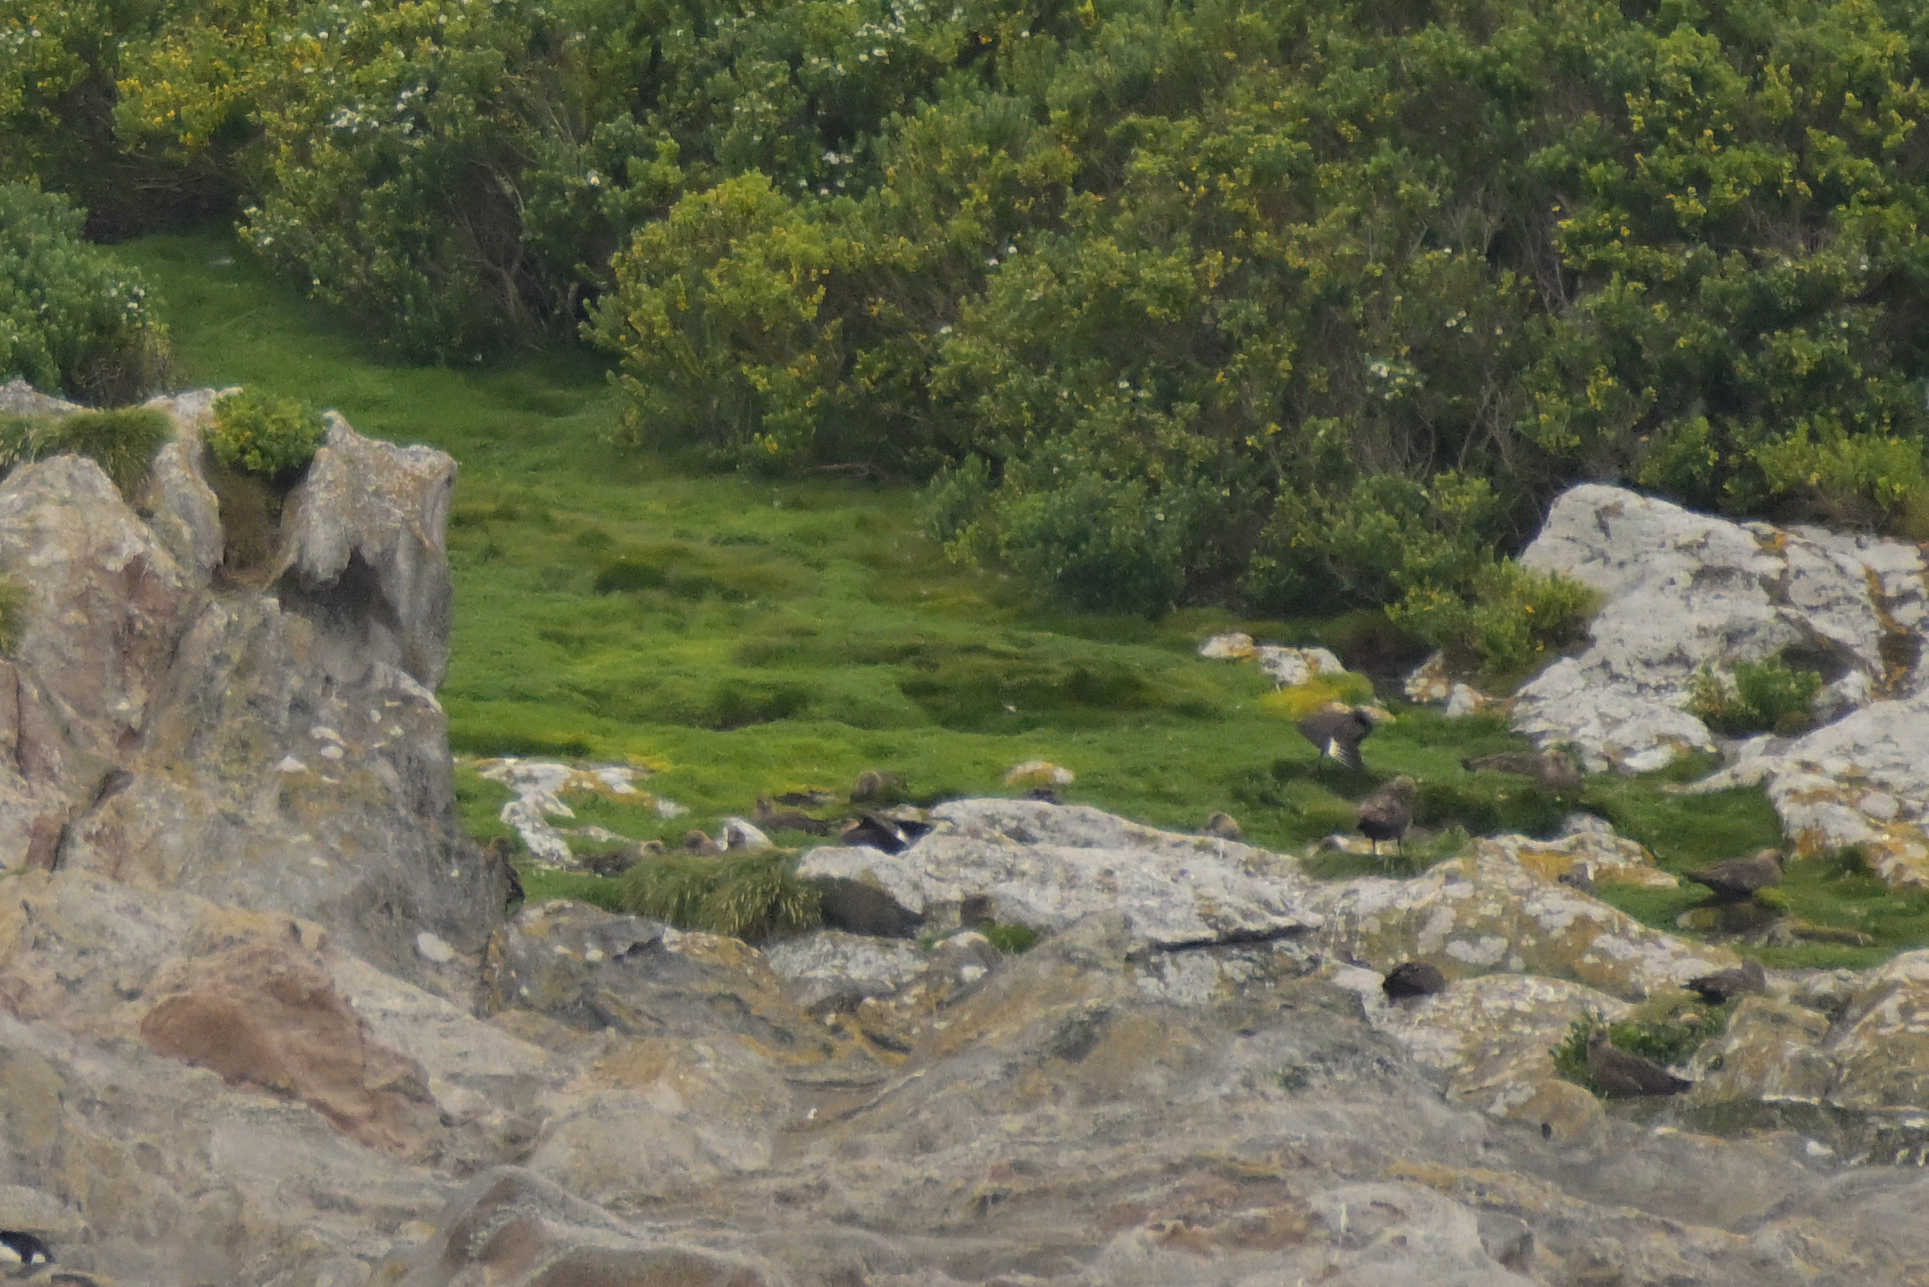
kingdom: Animalia
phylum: Chordata
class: Aves
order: Charadriiformes
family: Stercorariidae
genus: Stercorarius
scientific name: Stercorarius antarcticus
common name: Brown skua
